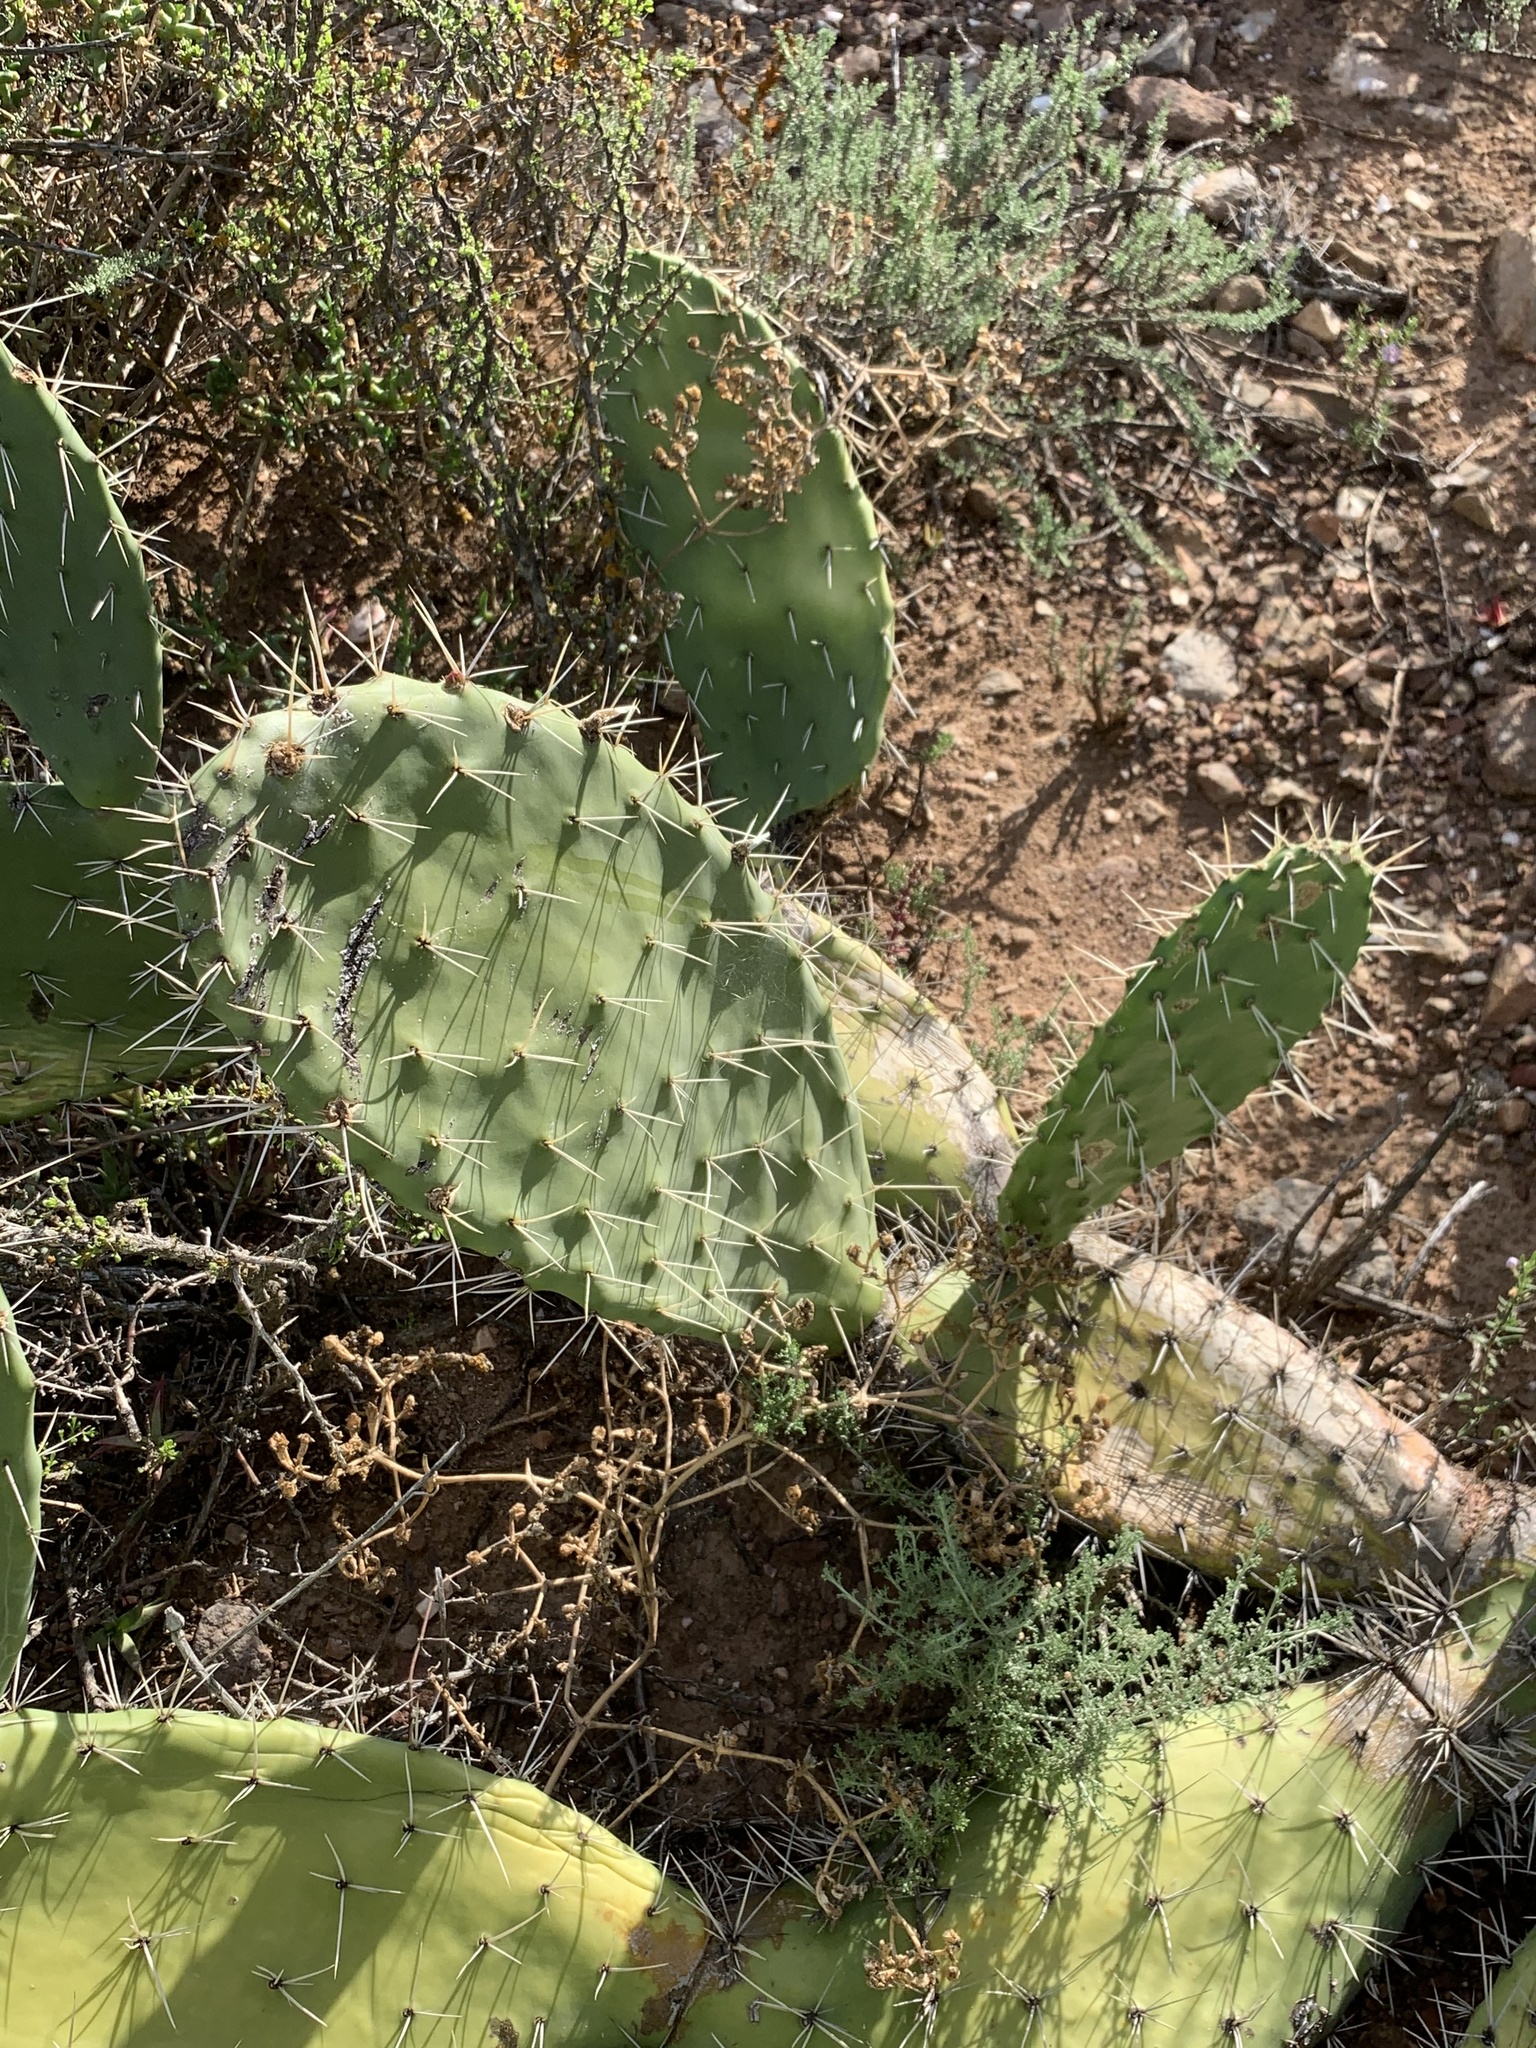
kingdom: Plantae
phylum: Tracheophyta
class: Magnoliopsida
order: Caryophyllales
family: Cactaceae
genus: Opuntia
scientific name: Opuntia ficus-indica
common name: Barbary fig
